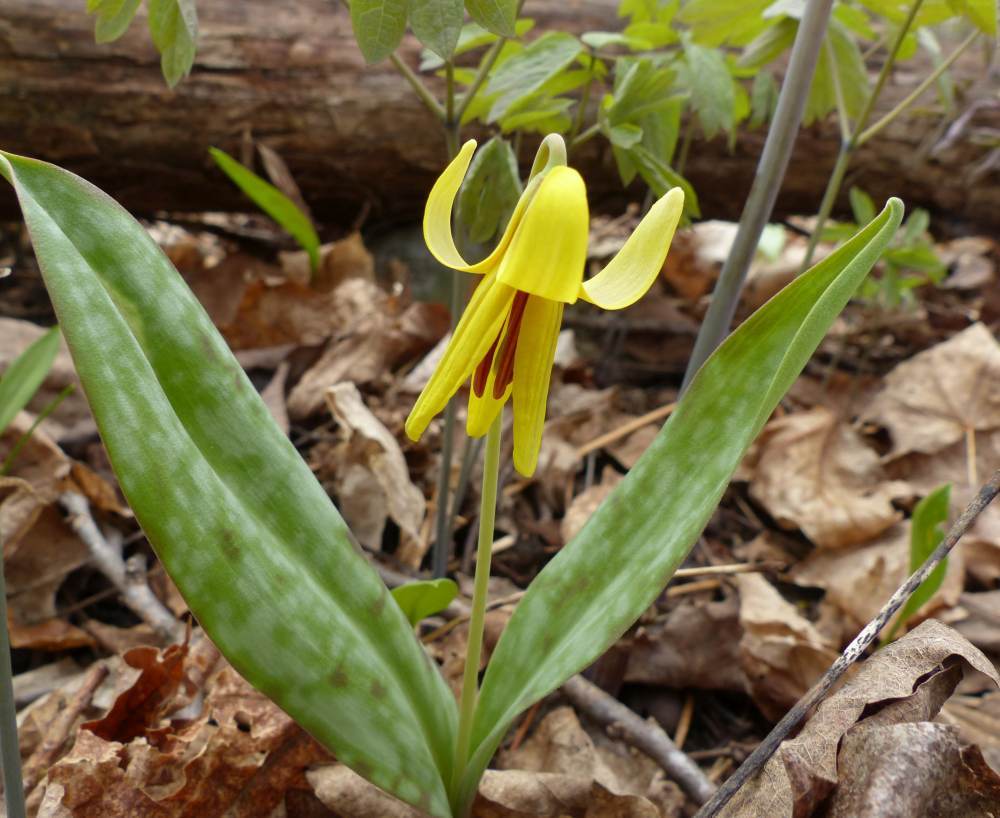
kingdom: Plantae
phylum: Tracheophyta
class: Liliopsida
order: Liliales
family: Liliaceae
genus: Erythronium
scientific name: Erythronium americanum
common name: Yellow adder's-tongue
